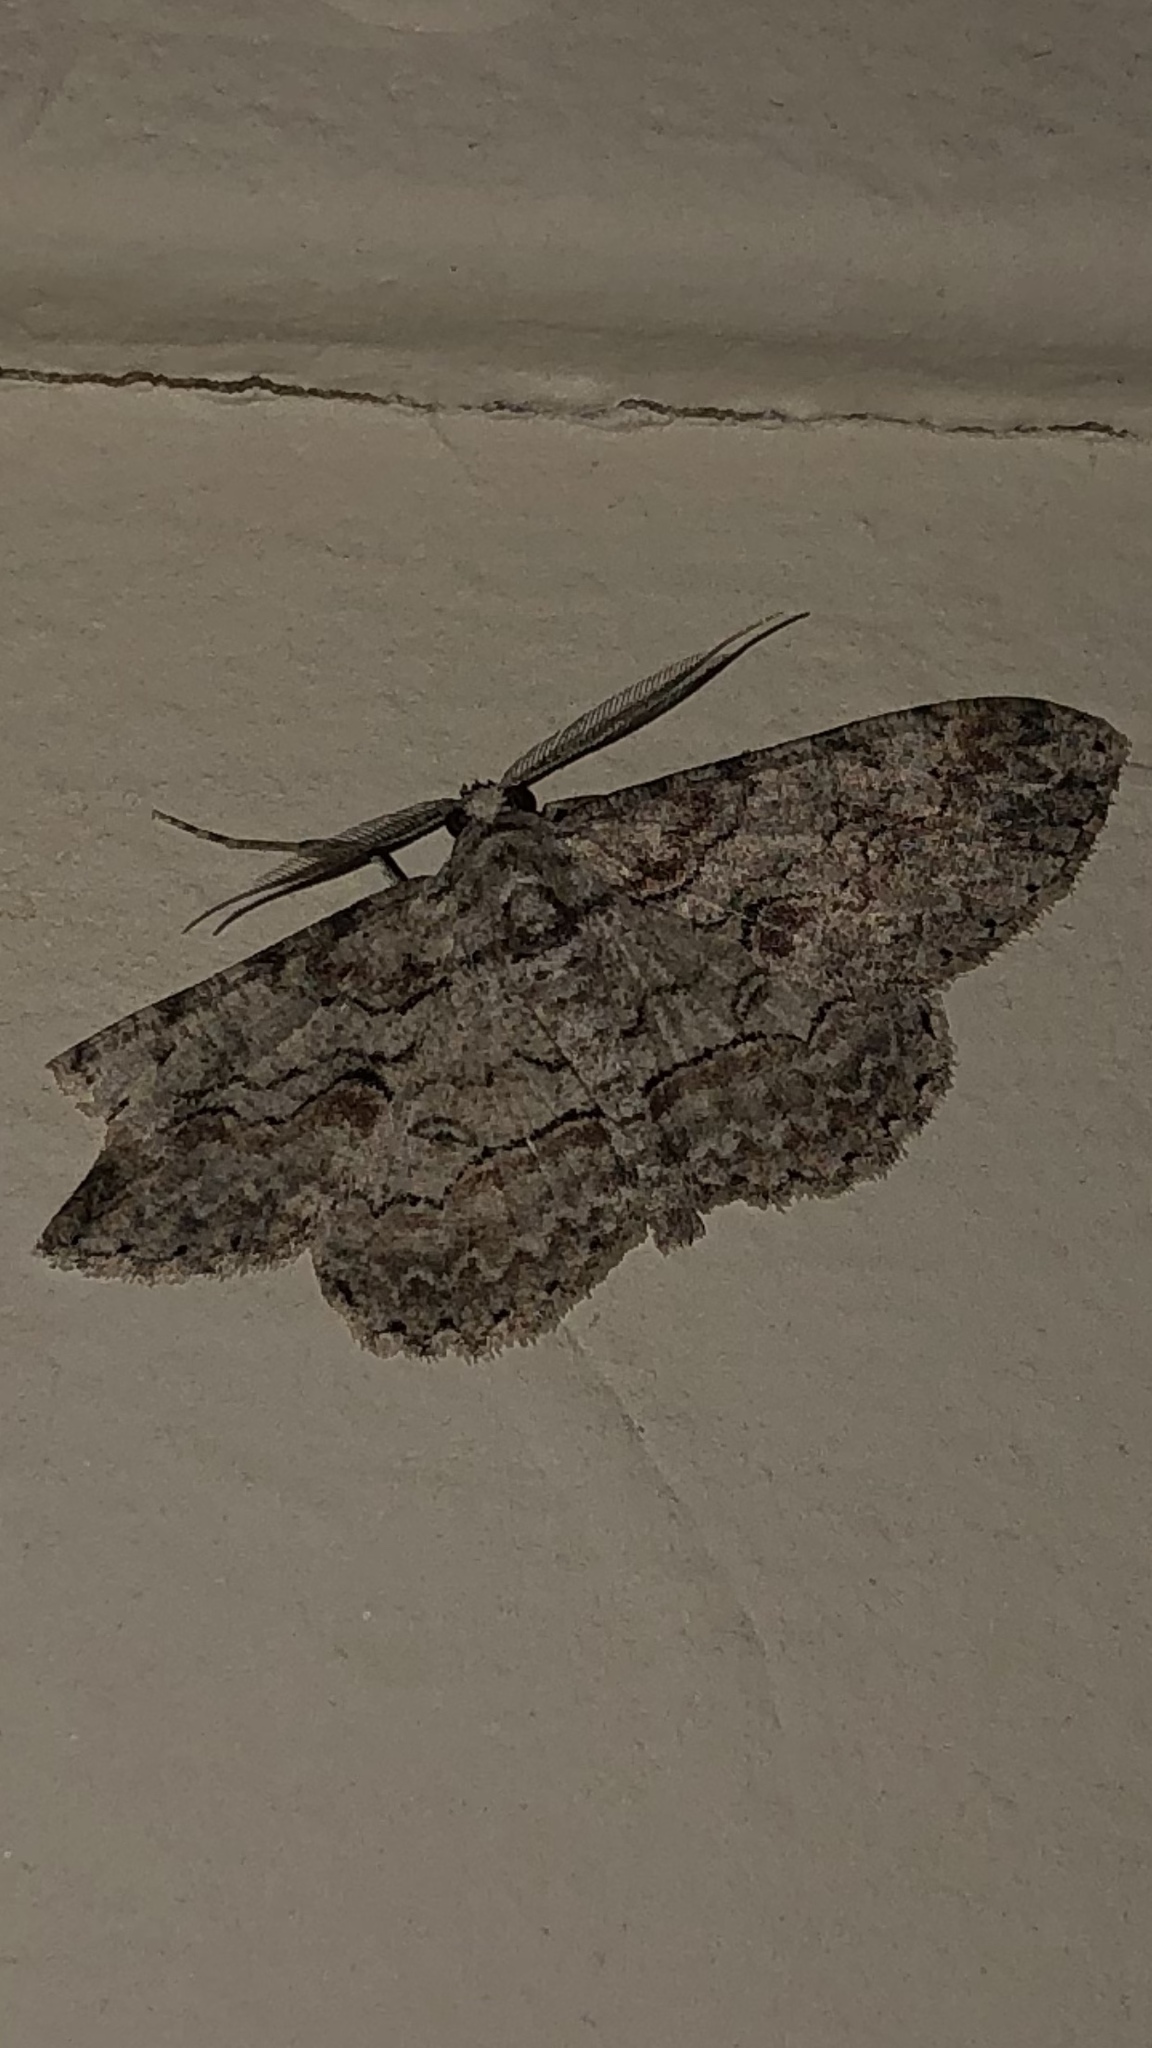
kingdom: Animalia
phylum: Arthropoda
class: Insecta
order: Lepidoptera
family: Geometridae
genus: Iridopsis
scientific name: Iridopsis defectaria
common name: Brown-shaded gray
